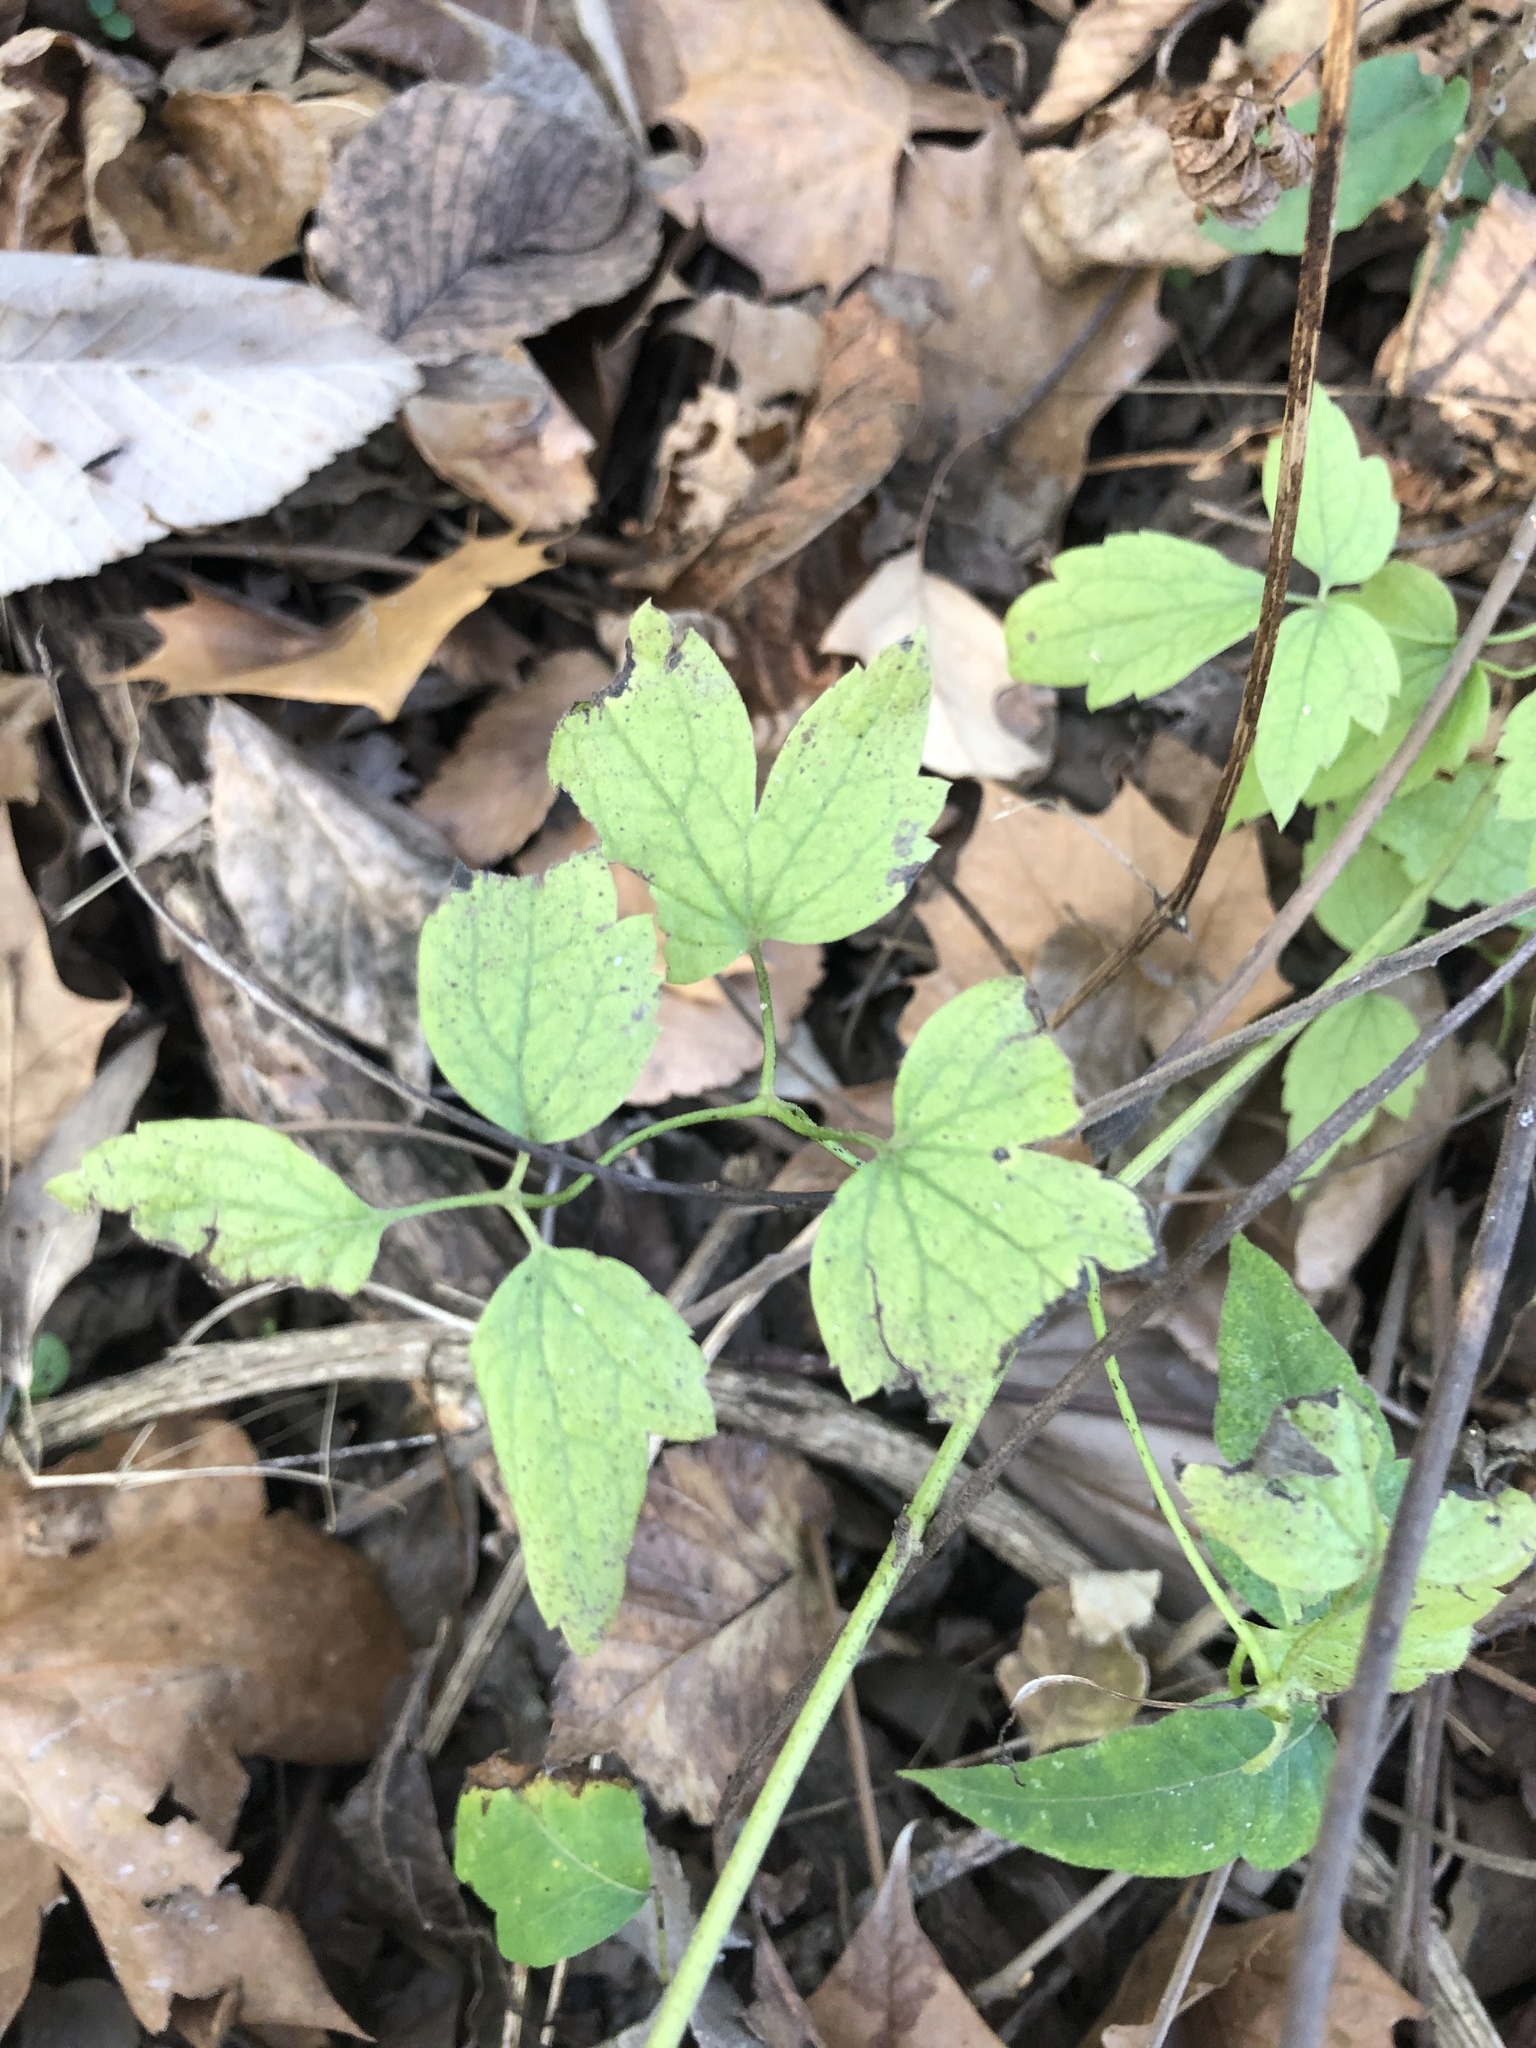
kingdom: Plantae
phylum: Tracheophyta
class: Magnoliopsida
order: Ranunculales
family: Ranunculaceae
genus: Clematis
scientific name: Clematis catesbyana
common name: Virgin's bower
